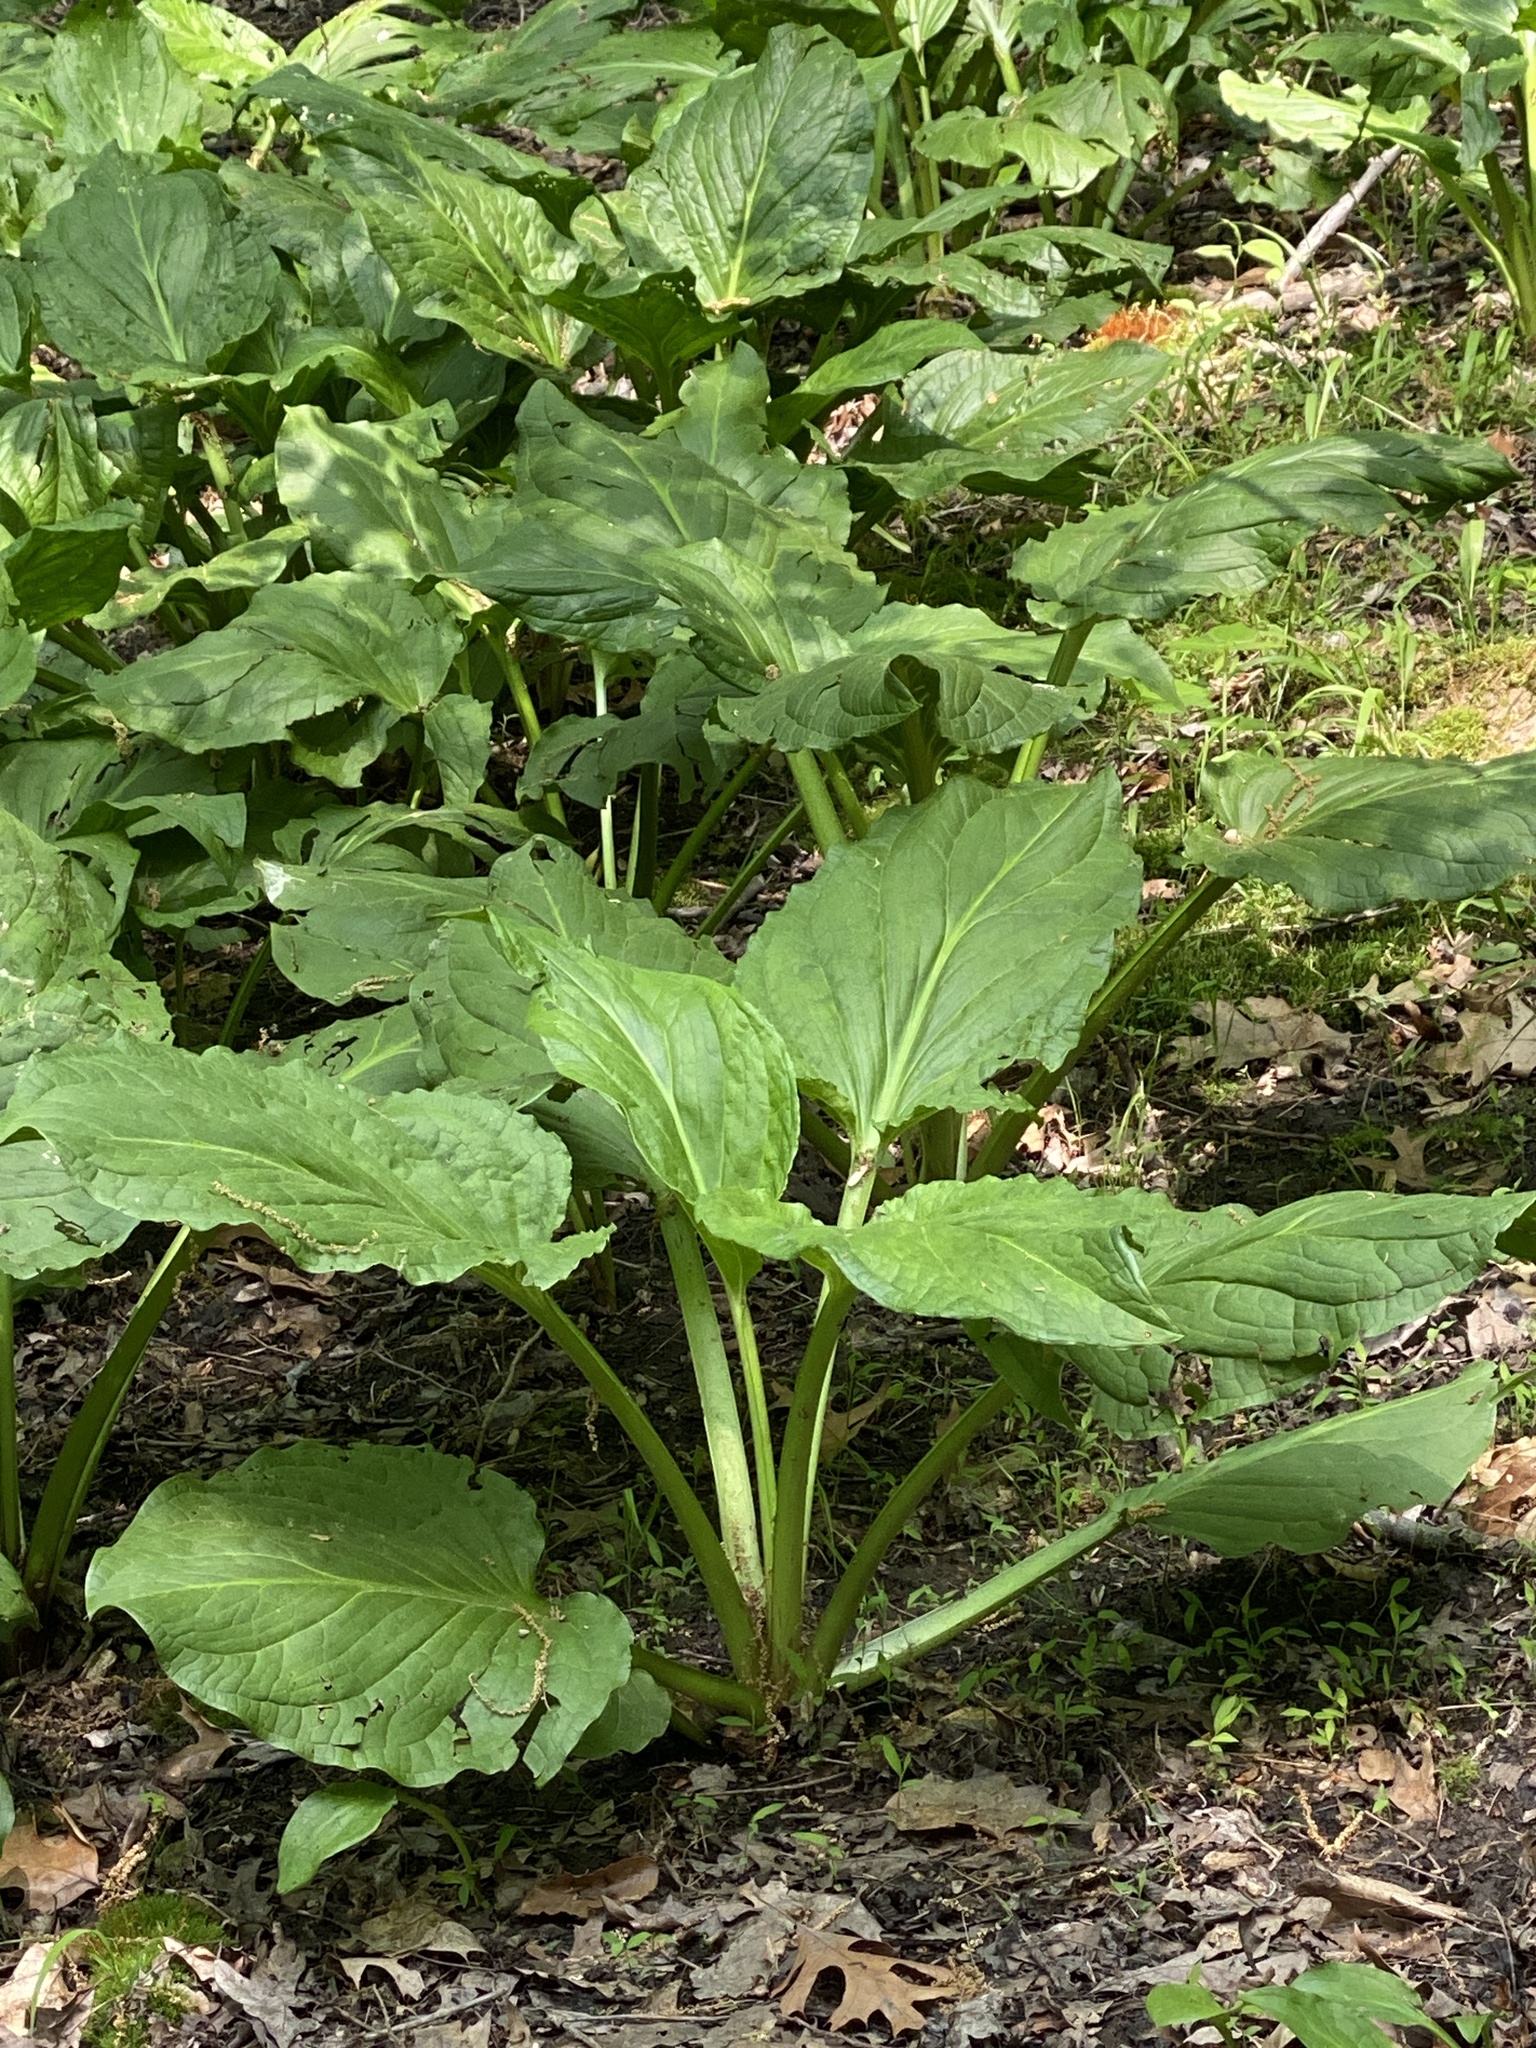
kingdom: Plantae
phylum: Tracheophyta
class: Liliopsida
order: Alismatales
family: Araceae
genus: Symplocarpus
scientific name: Symplocarpus foetidus
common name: Eastern skunk cabbage
